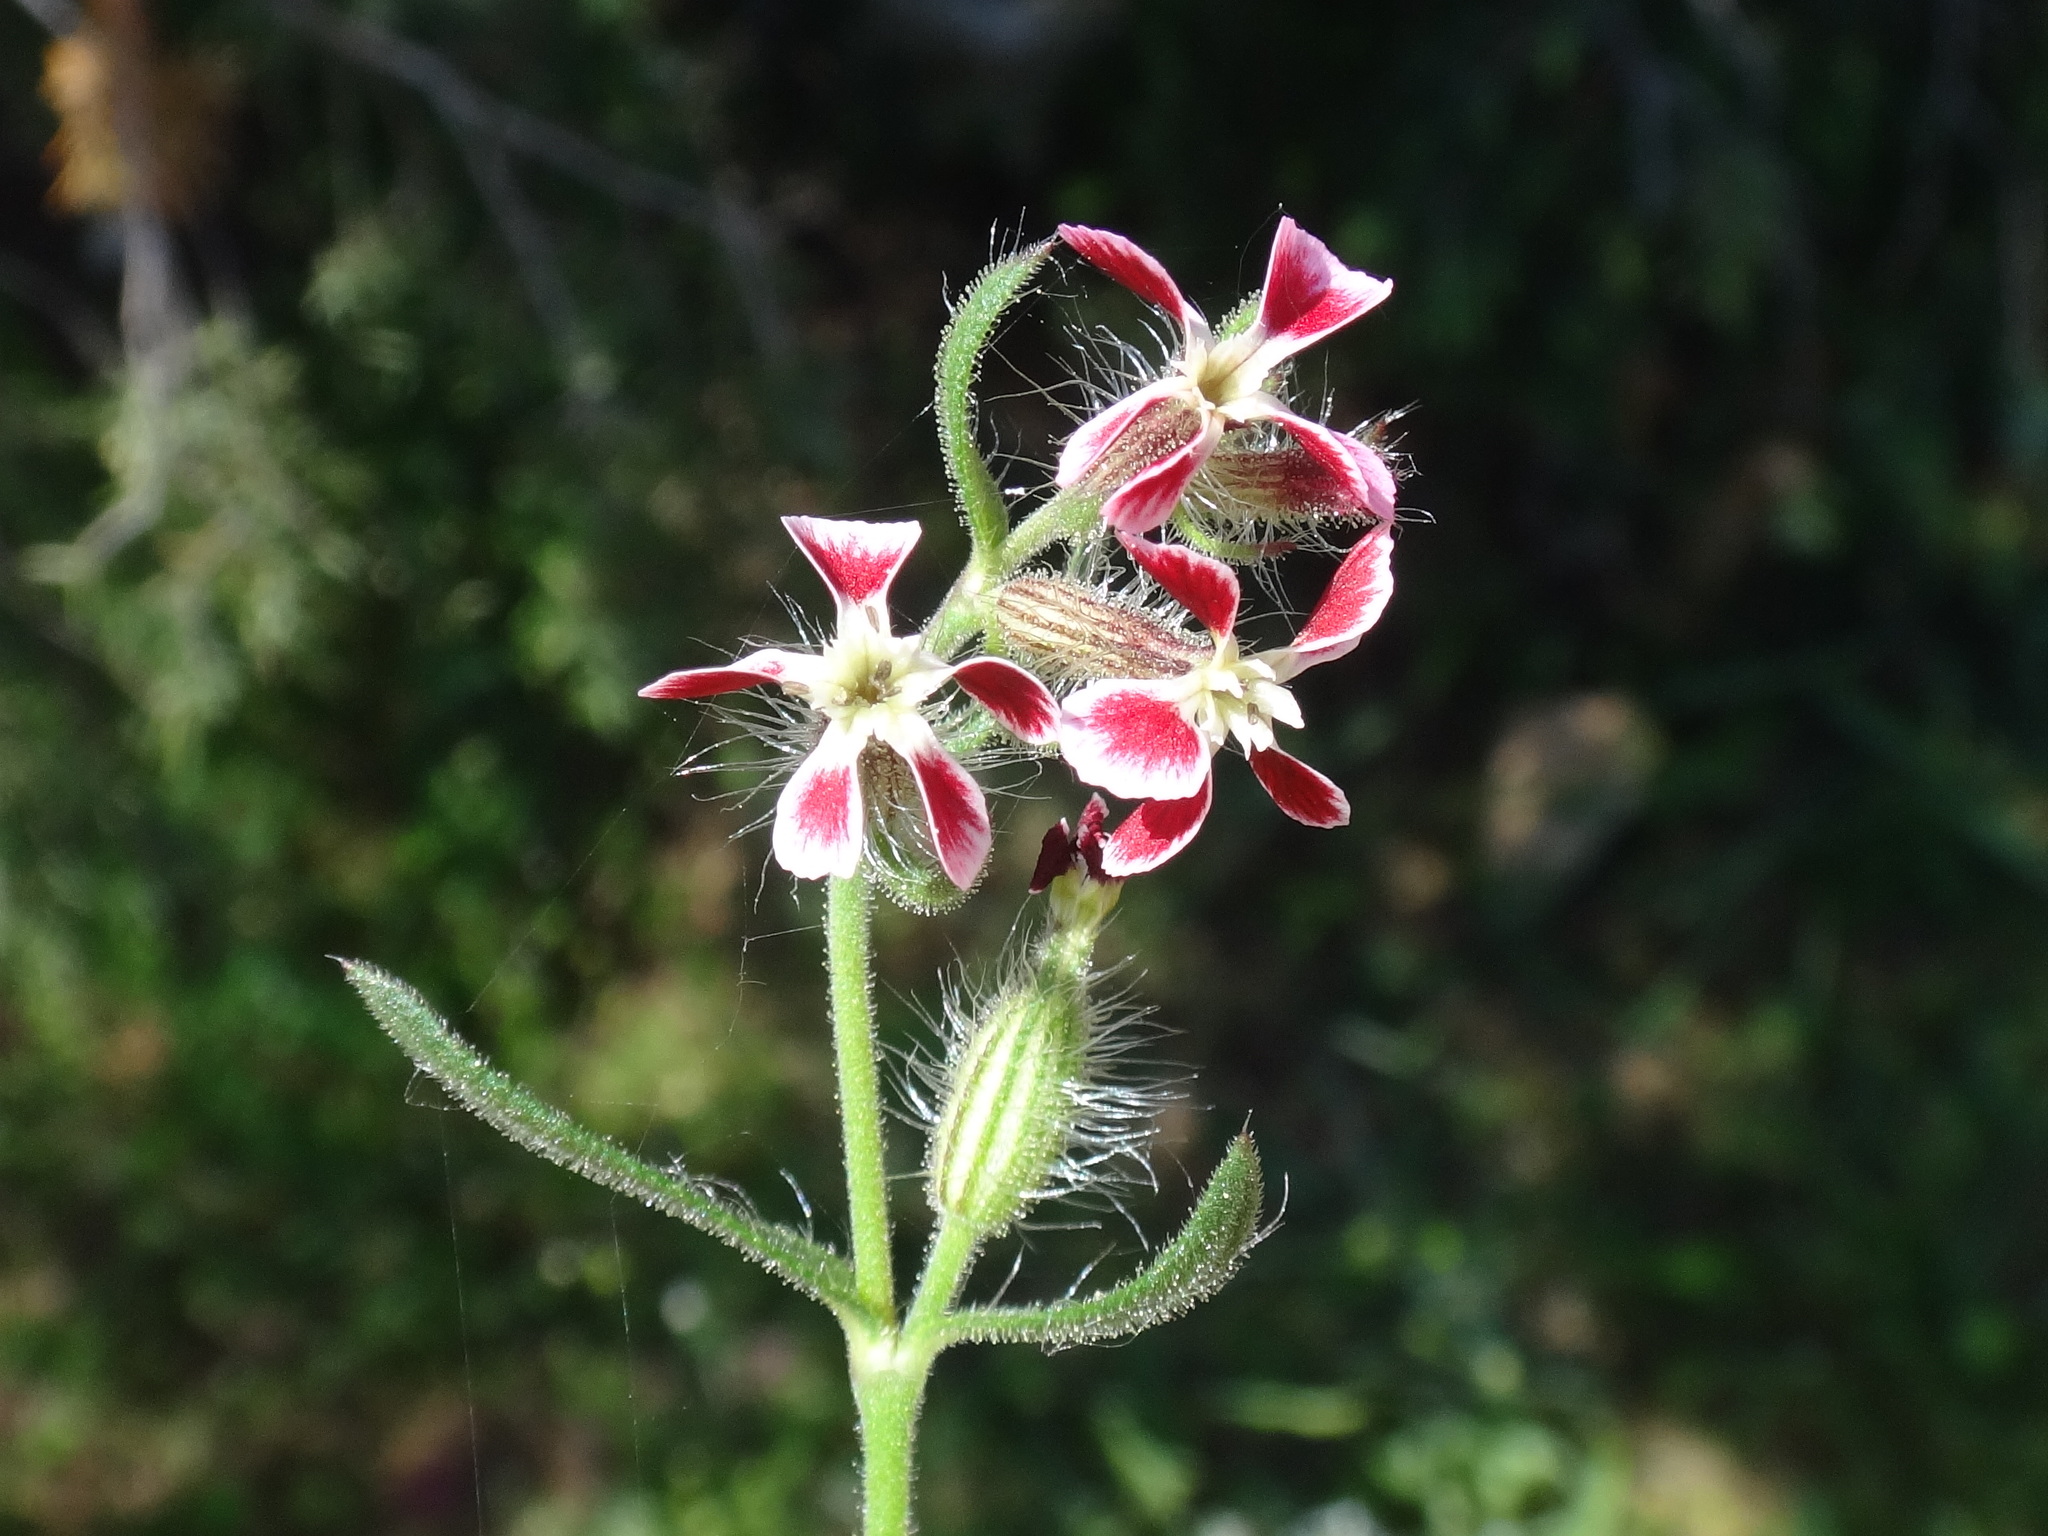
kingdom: Plantae
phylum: Tracheophyta
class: Magnoliopsida
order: Caryophyllales
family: Caryophyllaceae
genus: Silene
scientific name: Silene gallica
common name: Small-flowered catchfly
